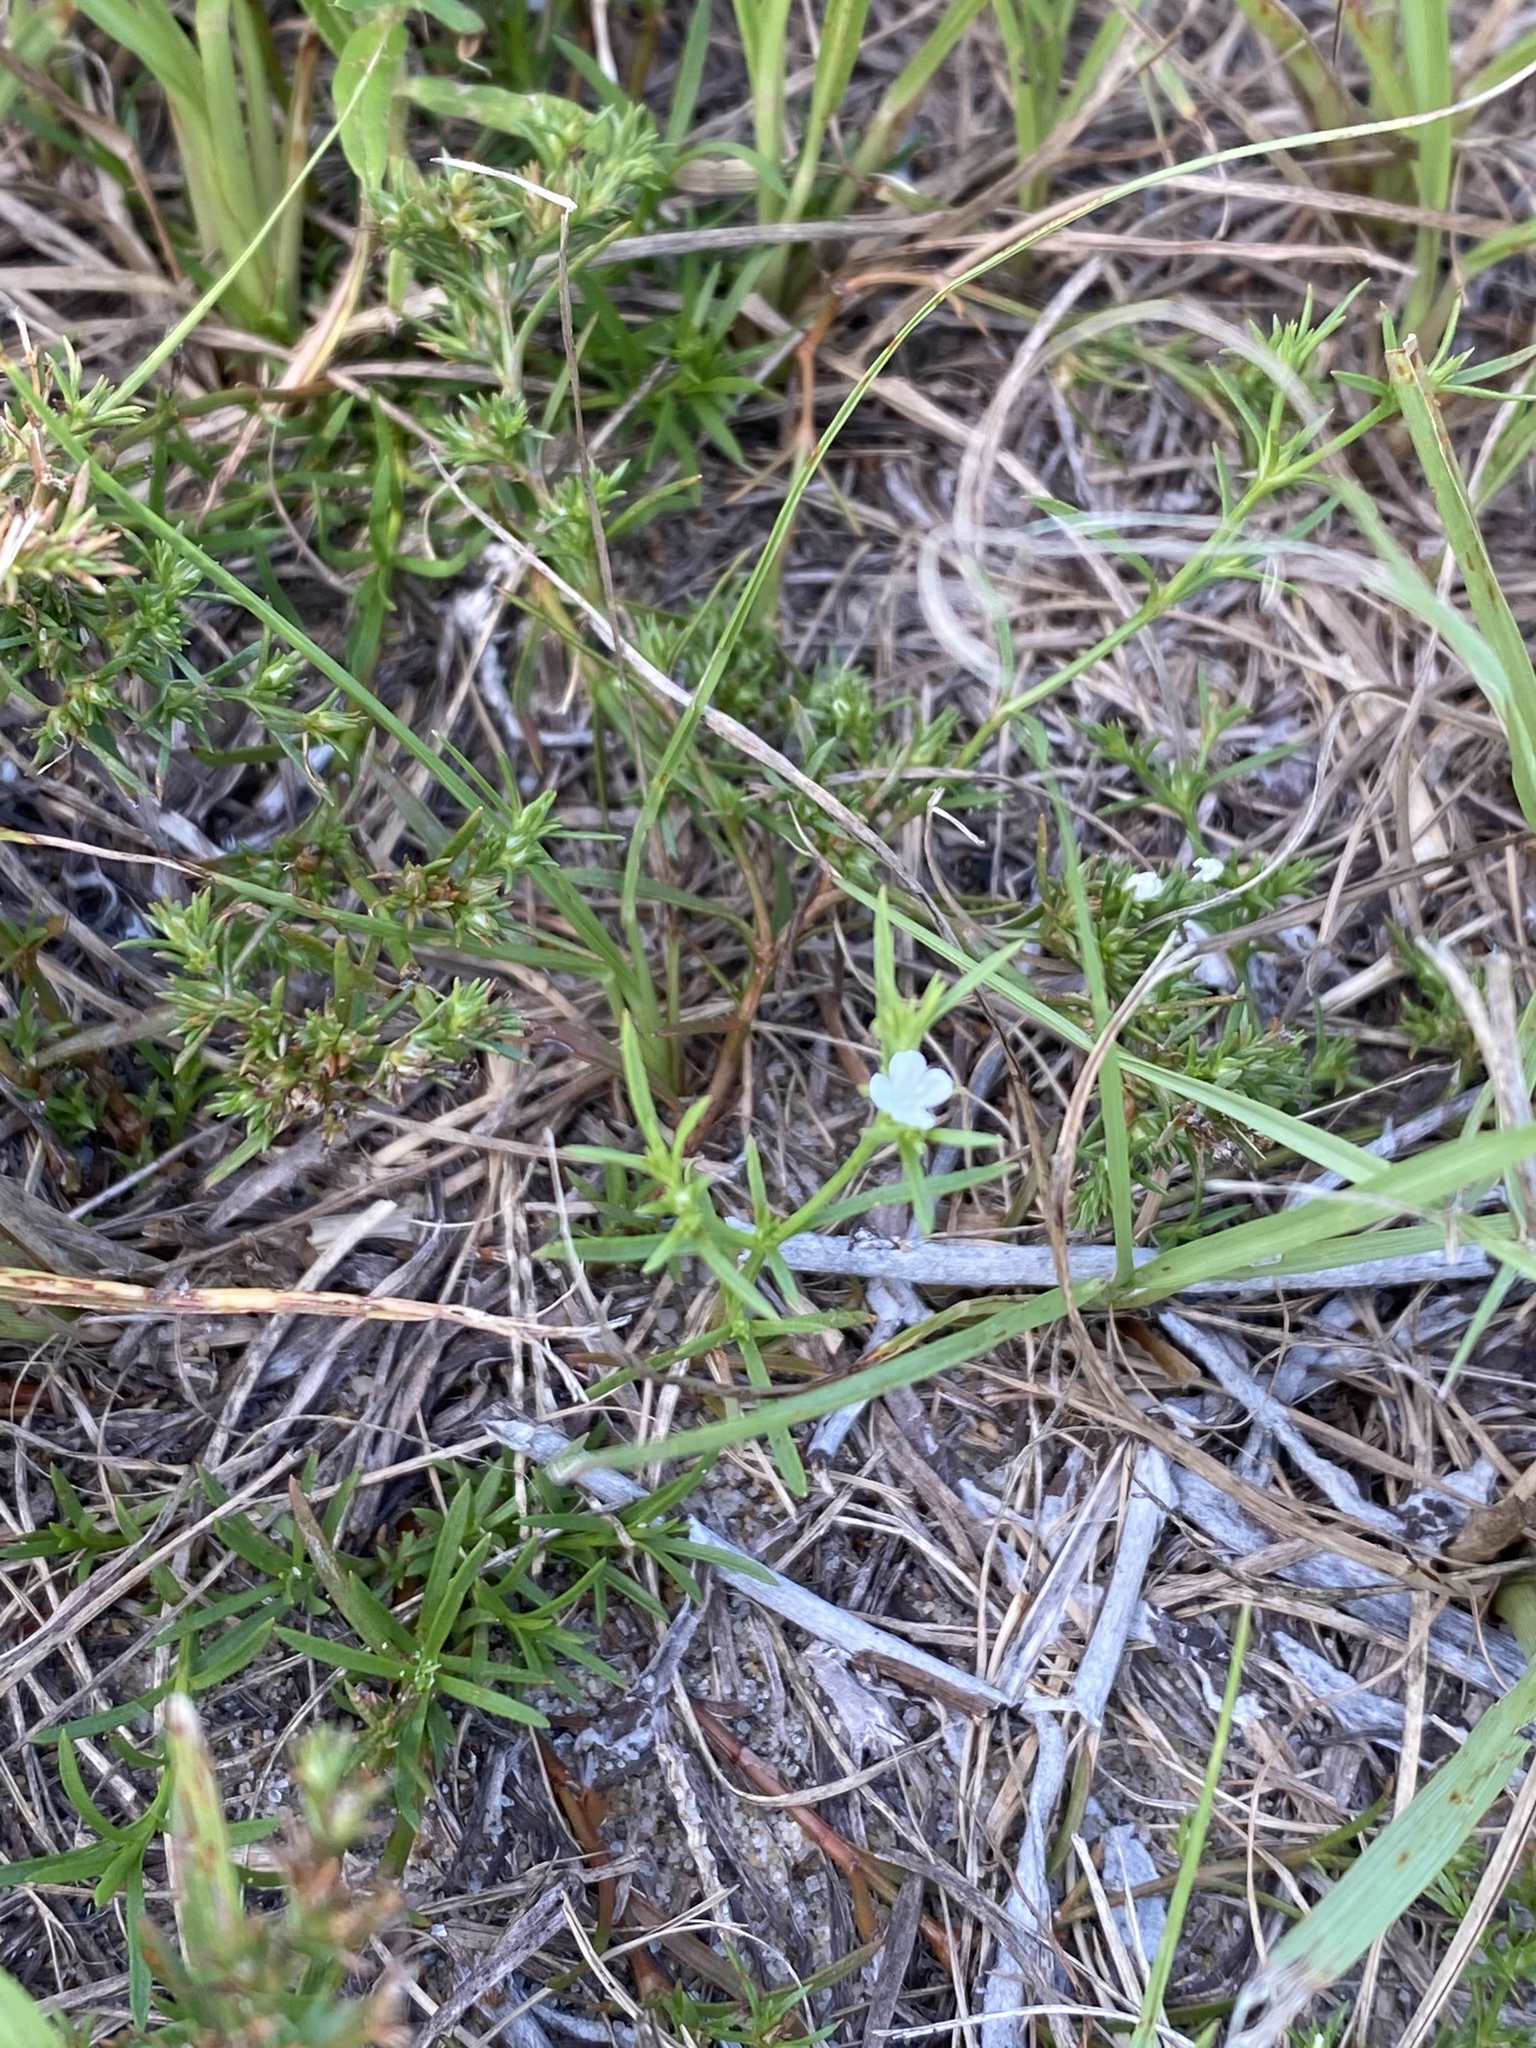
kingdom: Plantae
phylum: Tracheophyta
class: Magnoliopsida
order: Lamiales
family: Tetrachondraceae
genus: Polypremum
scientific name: Polypremum procumbens
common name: Juniper-leaf
